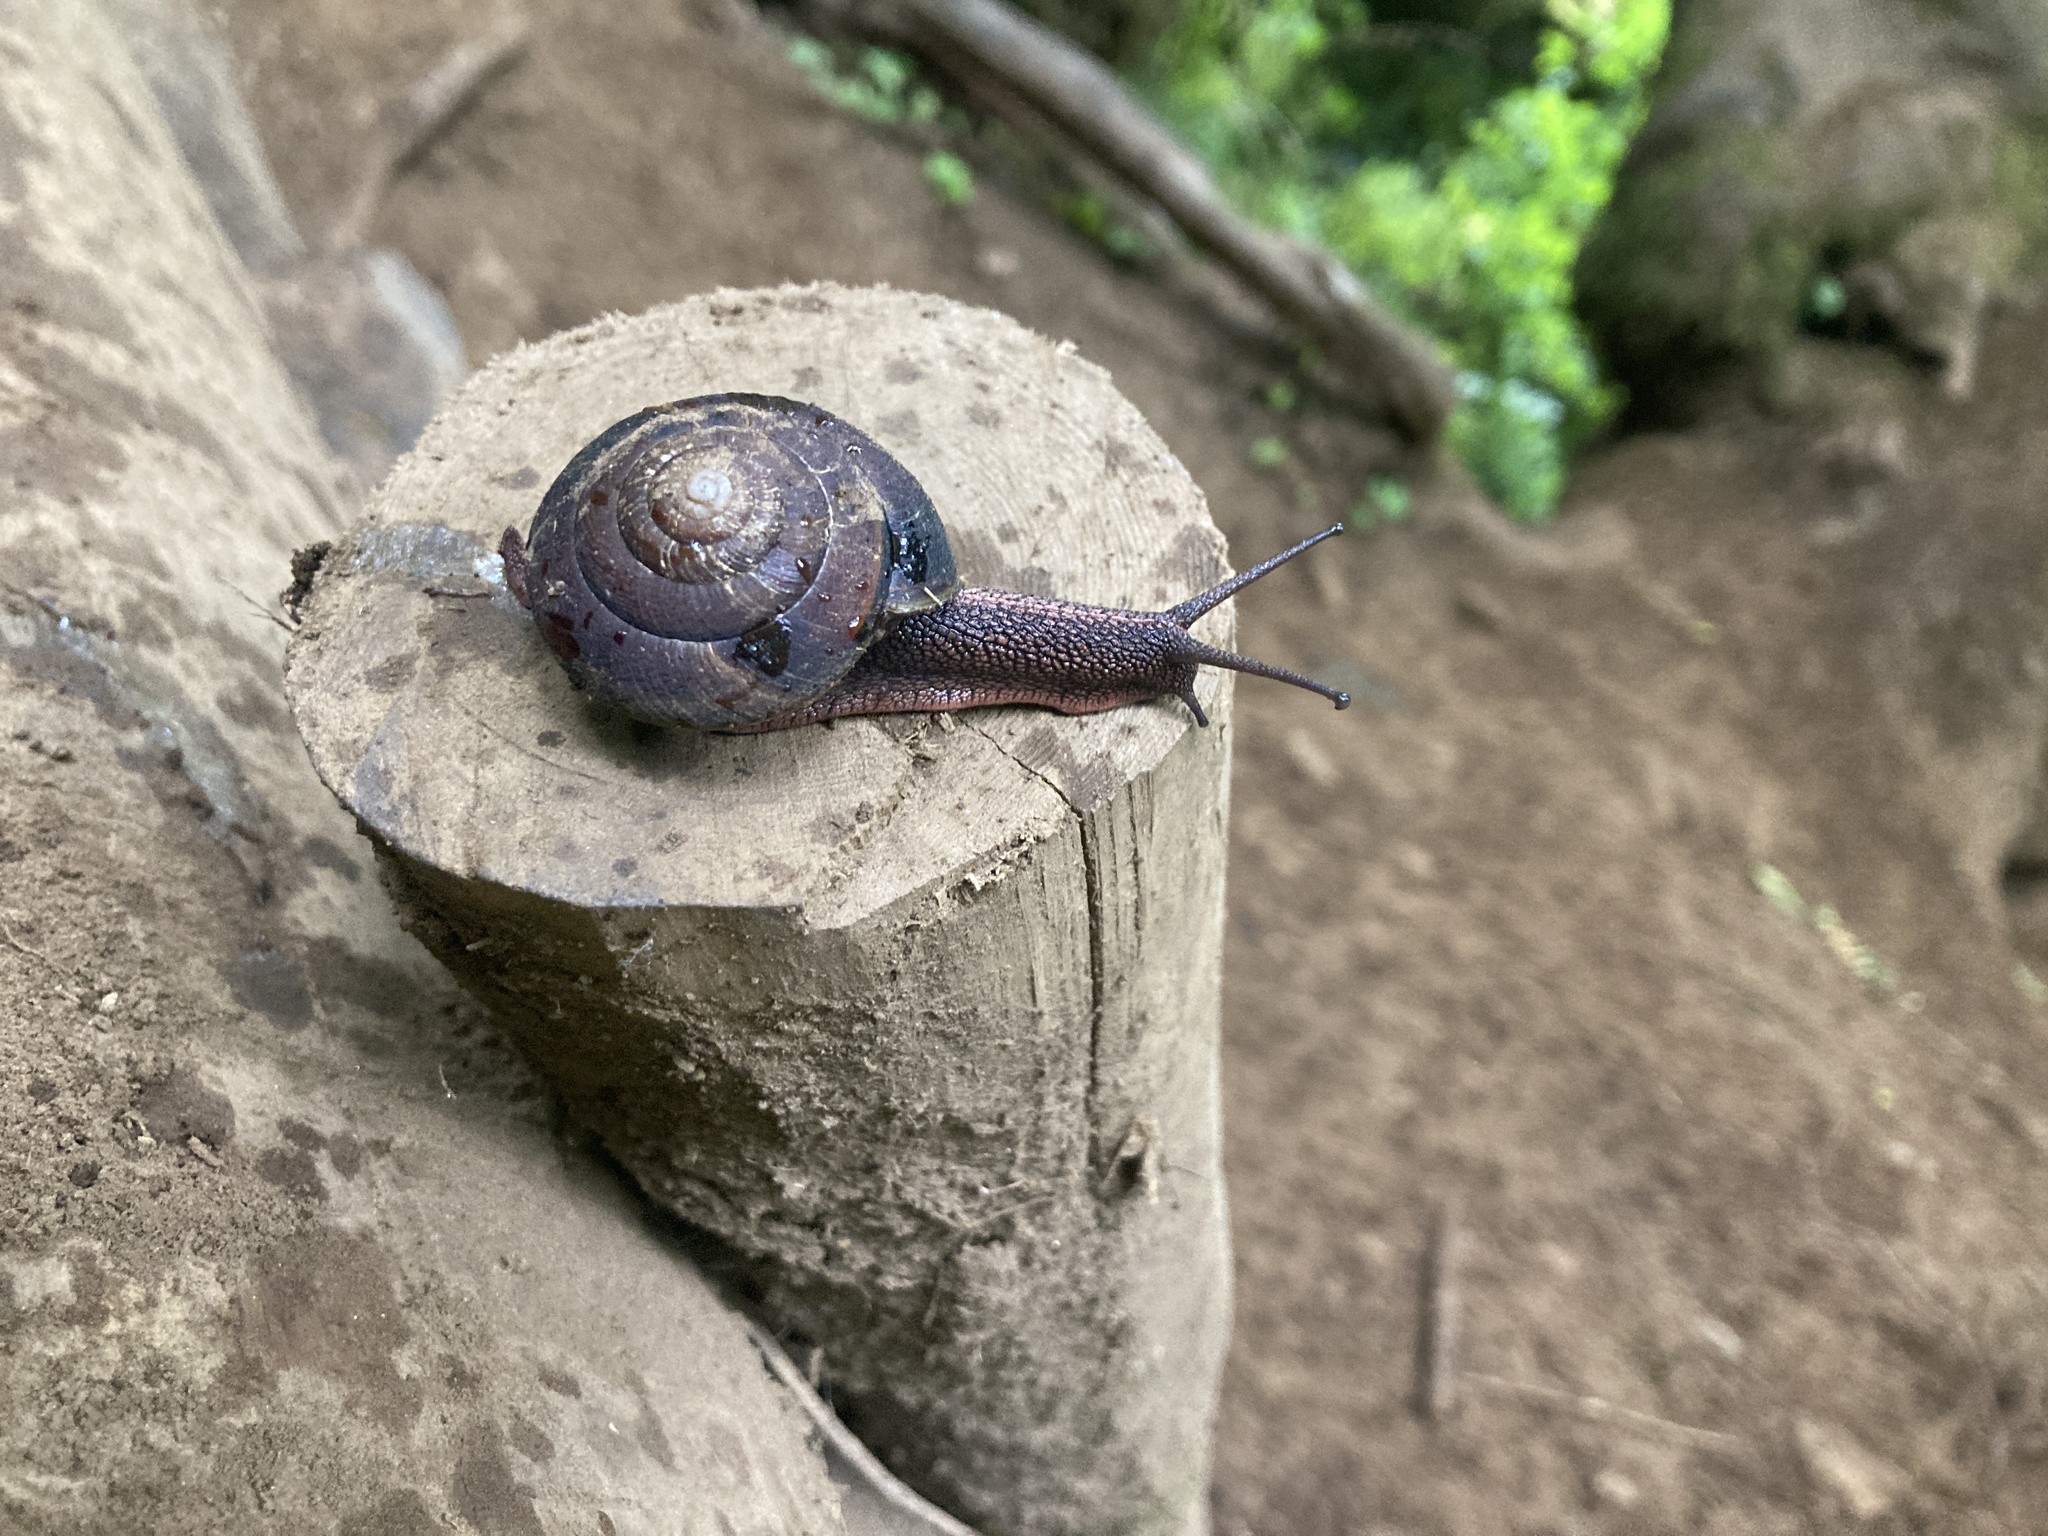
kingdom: Animalia
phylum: Mollusca
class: Gastropoda
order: Stylommatophora
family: Xanthonychidae
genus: Monadenia
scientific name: Monadenia fidelis
